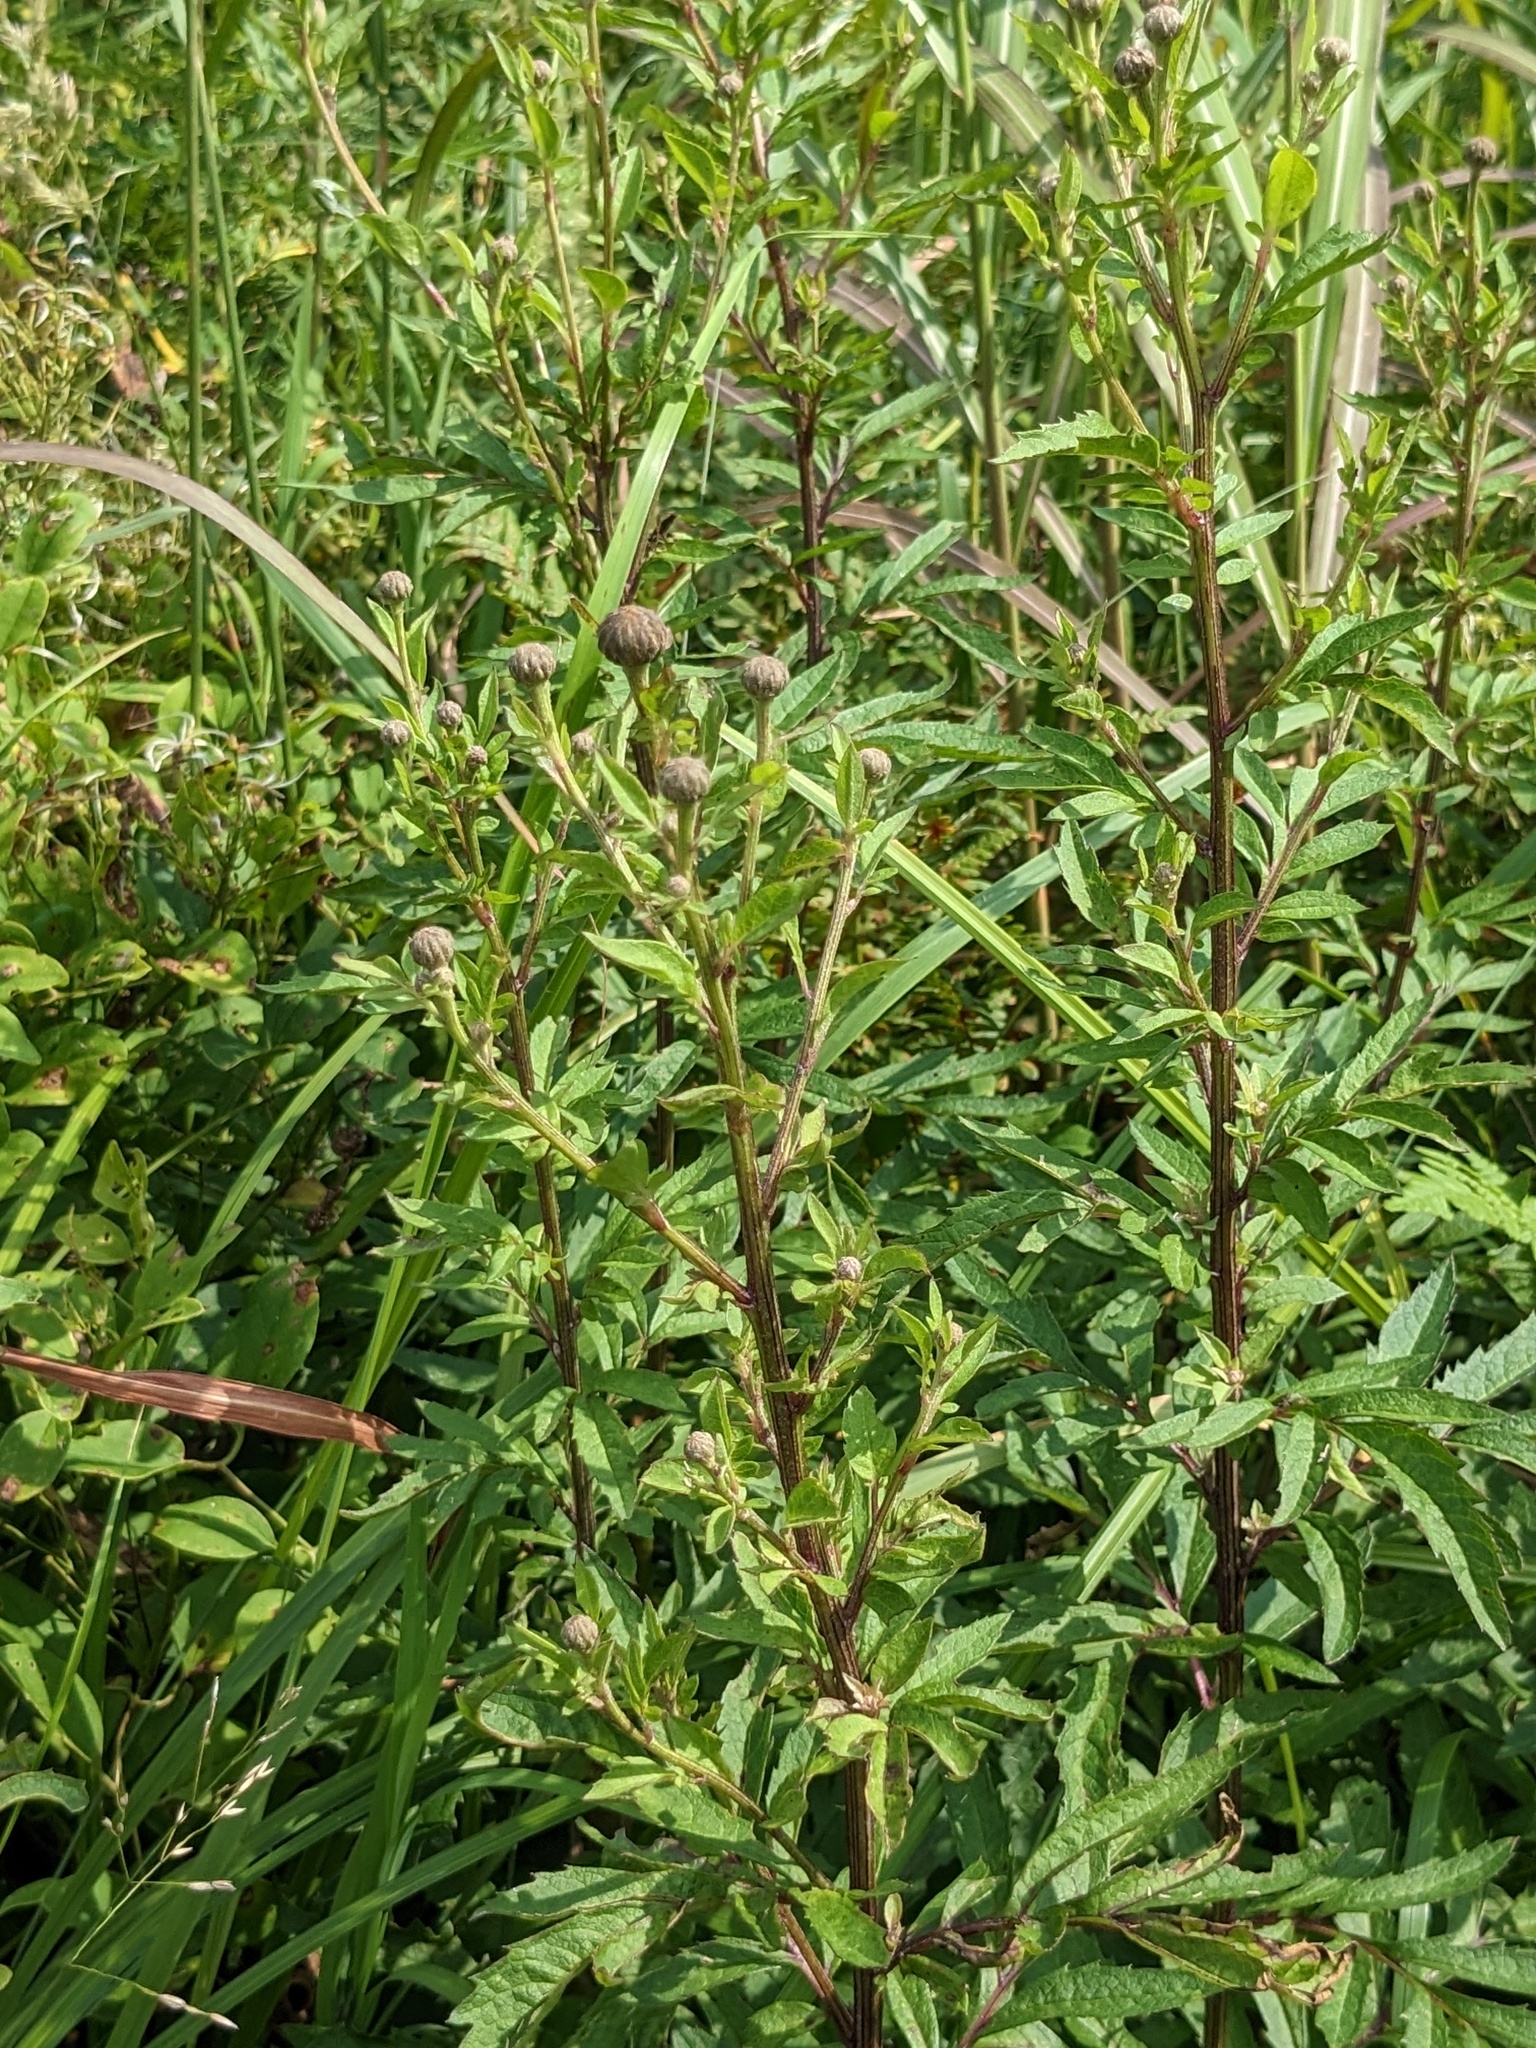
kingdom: Plantae
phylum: Tracheophyta
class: Magnoliopsida
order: Asterales
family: Asteraceae
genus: Serratula
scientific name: Serratula coronata
